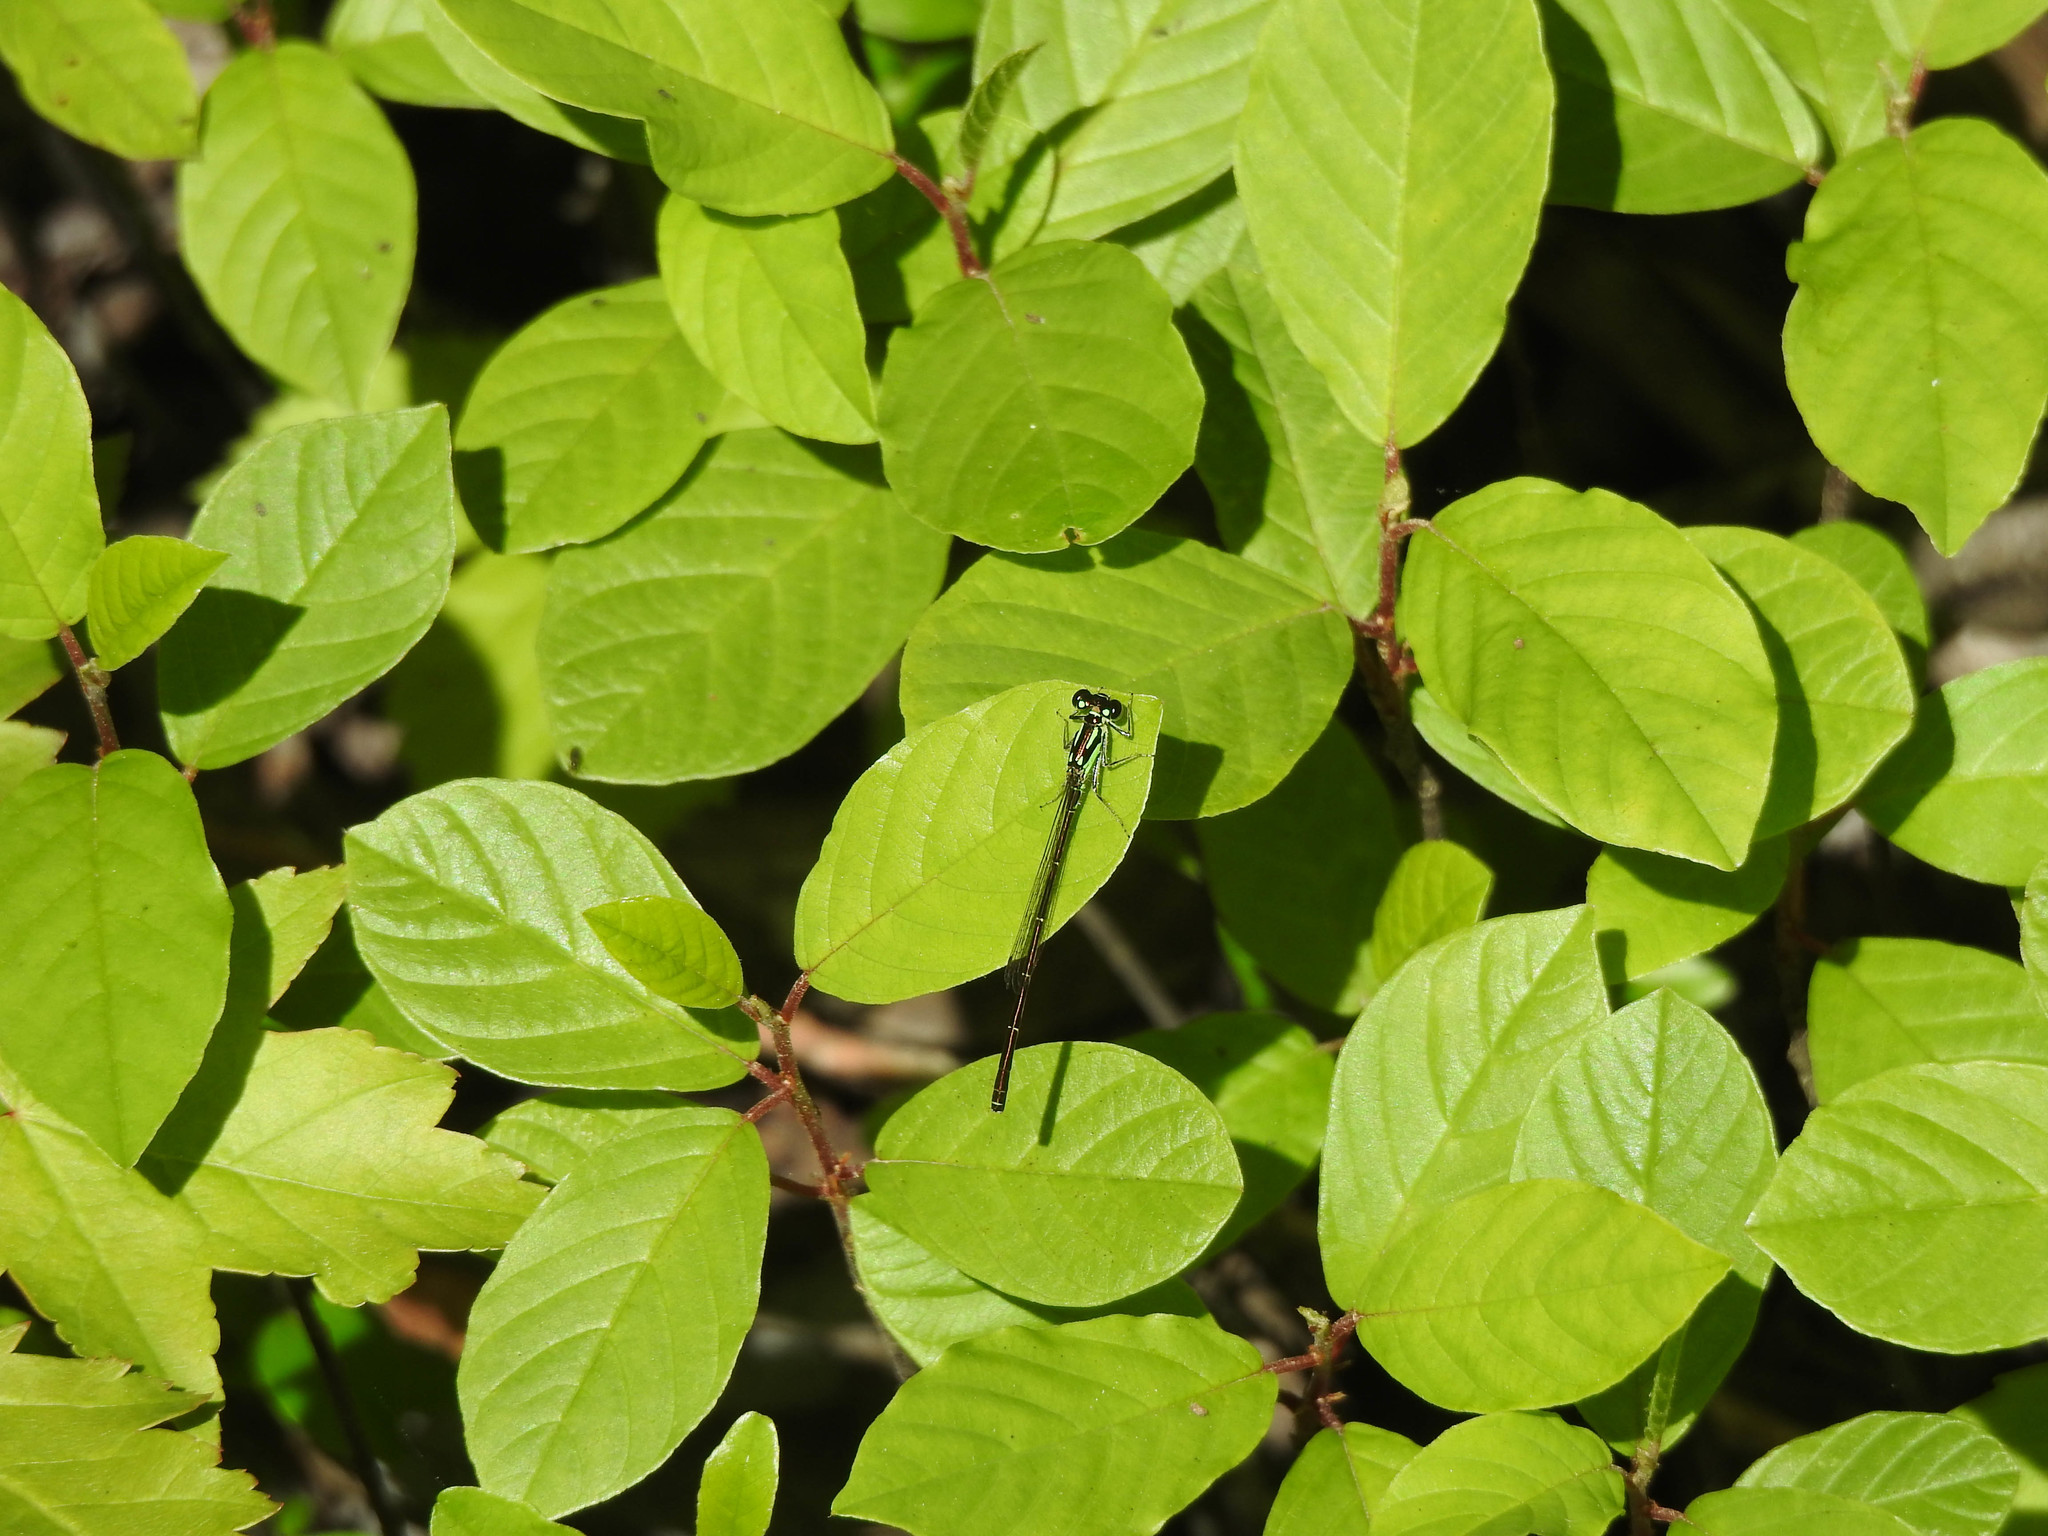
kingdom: Animalia
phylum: Arthropoda
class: Insecta
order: Odonata
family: Coenagrionidae
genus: Ischnura
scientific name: Ischnura posita
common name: Fragile forktail
